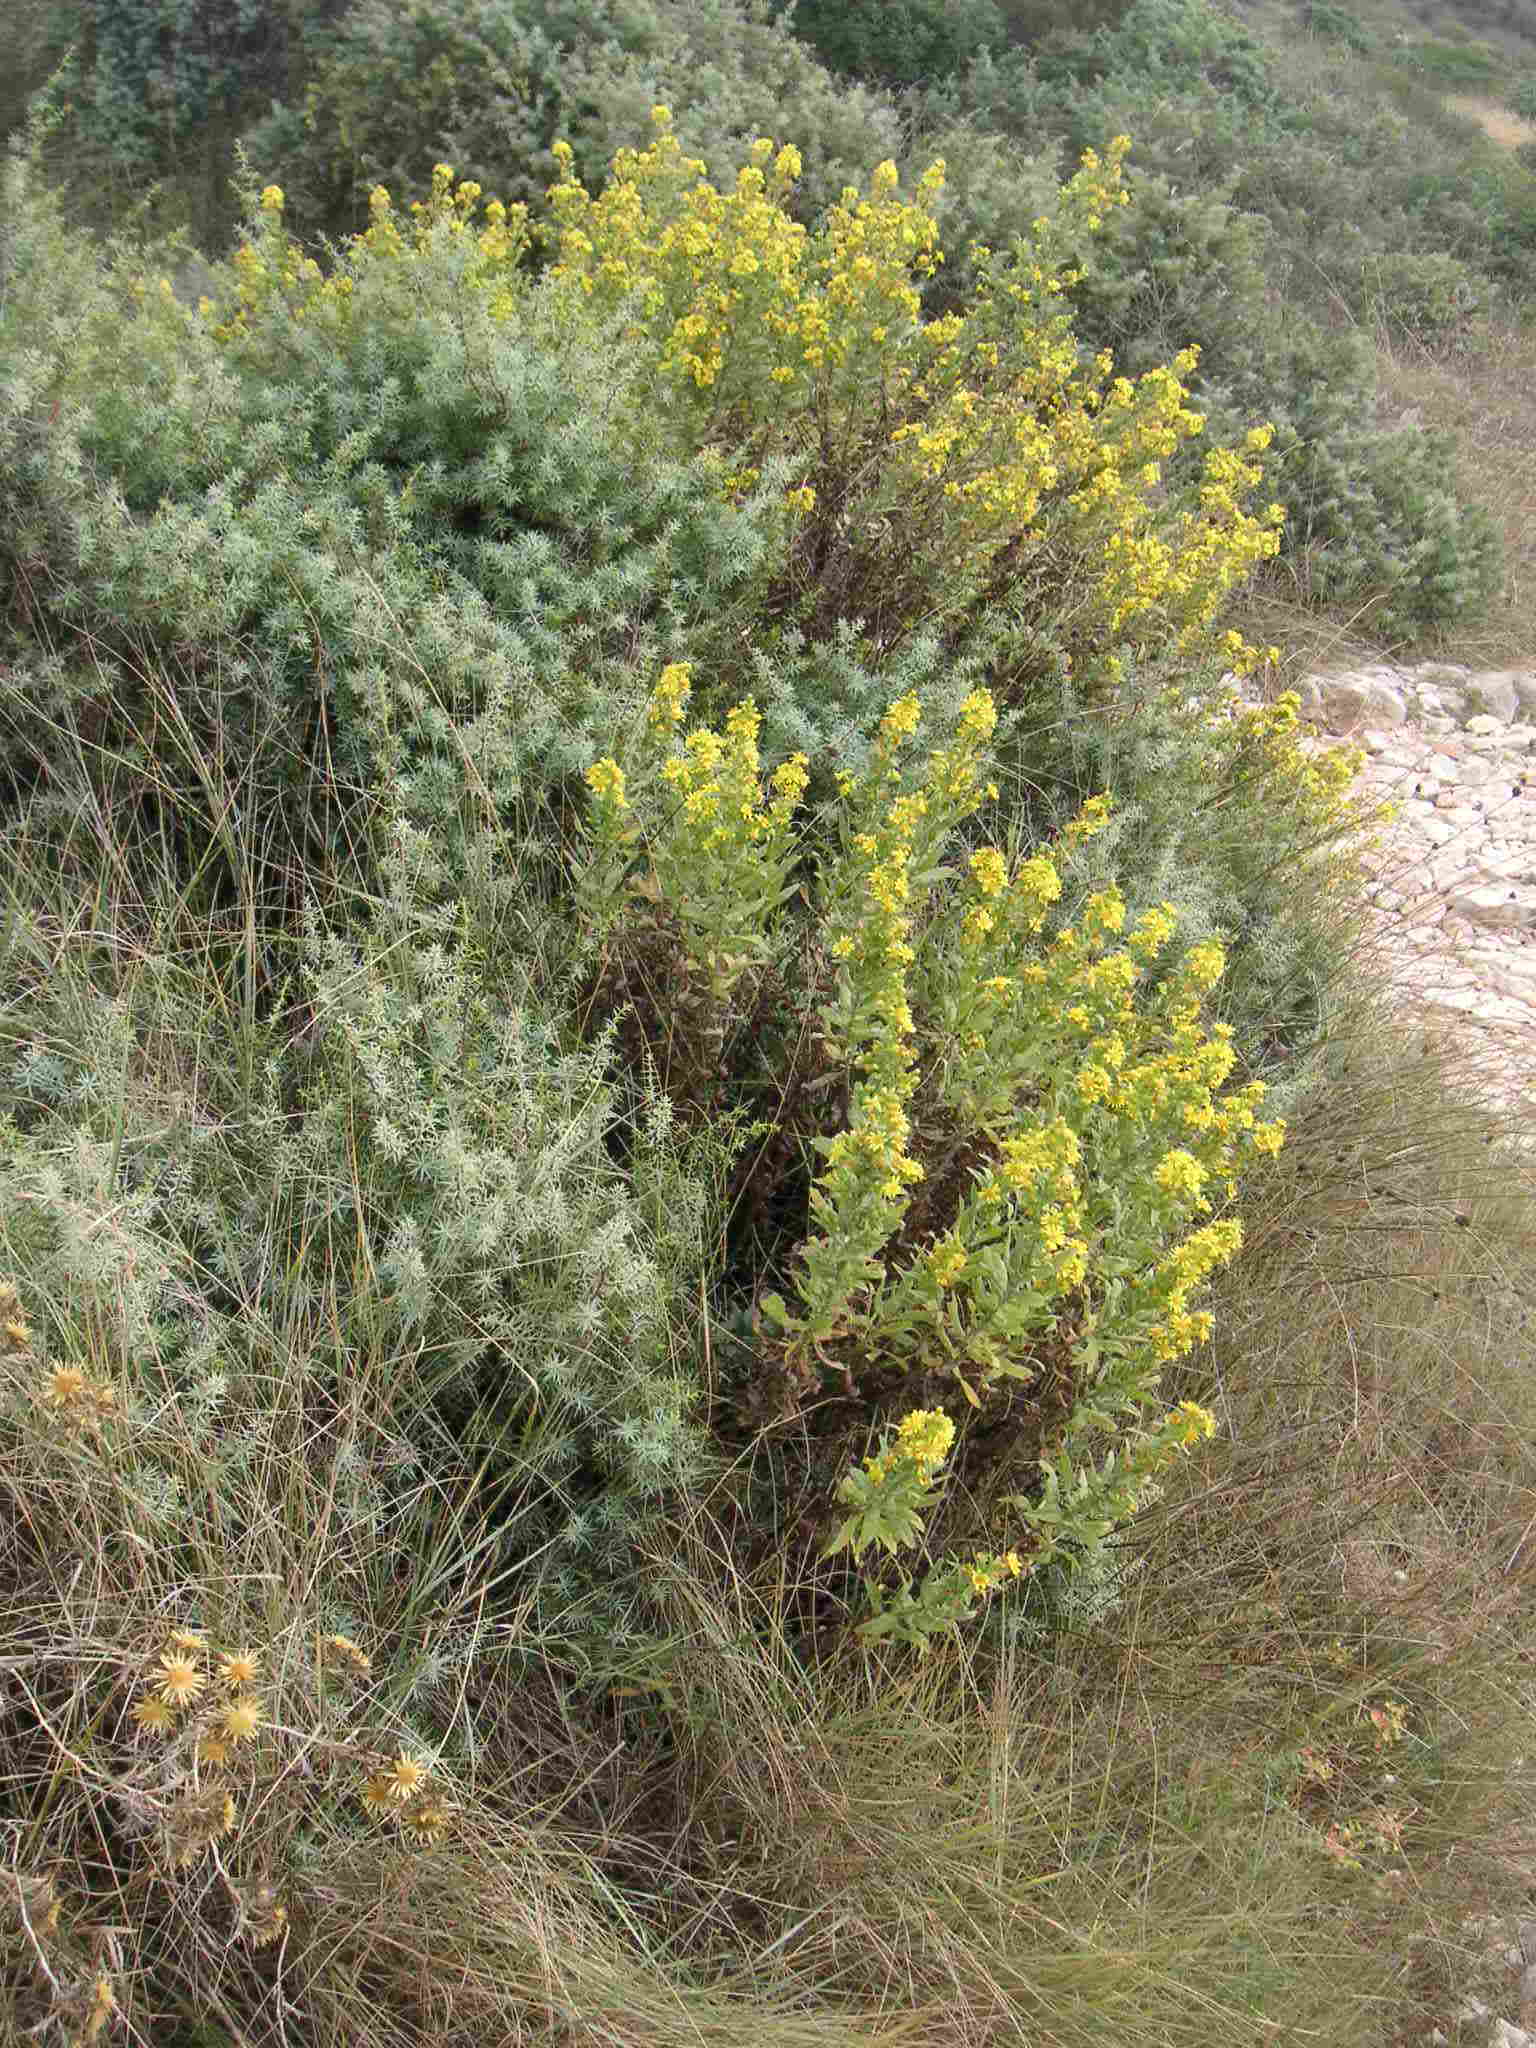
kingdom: Plantae
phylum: Tracheophyta
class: Magnoliopsida
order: Asterales
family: Asteraceae
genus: Dittrichia
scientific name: Dittrichia viscosa
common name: Woody fleabane
